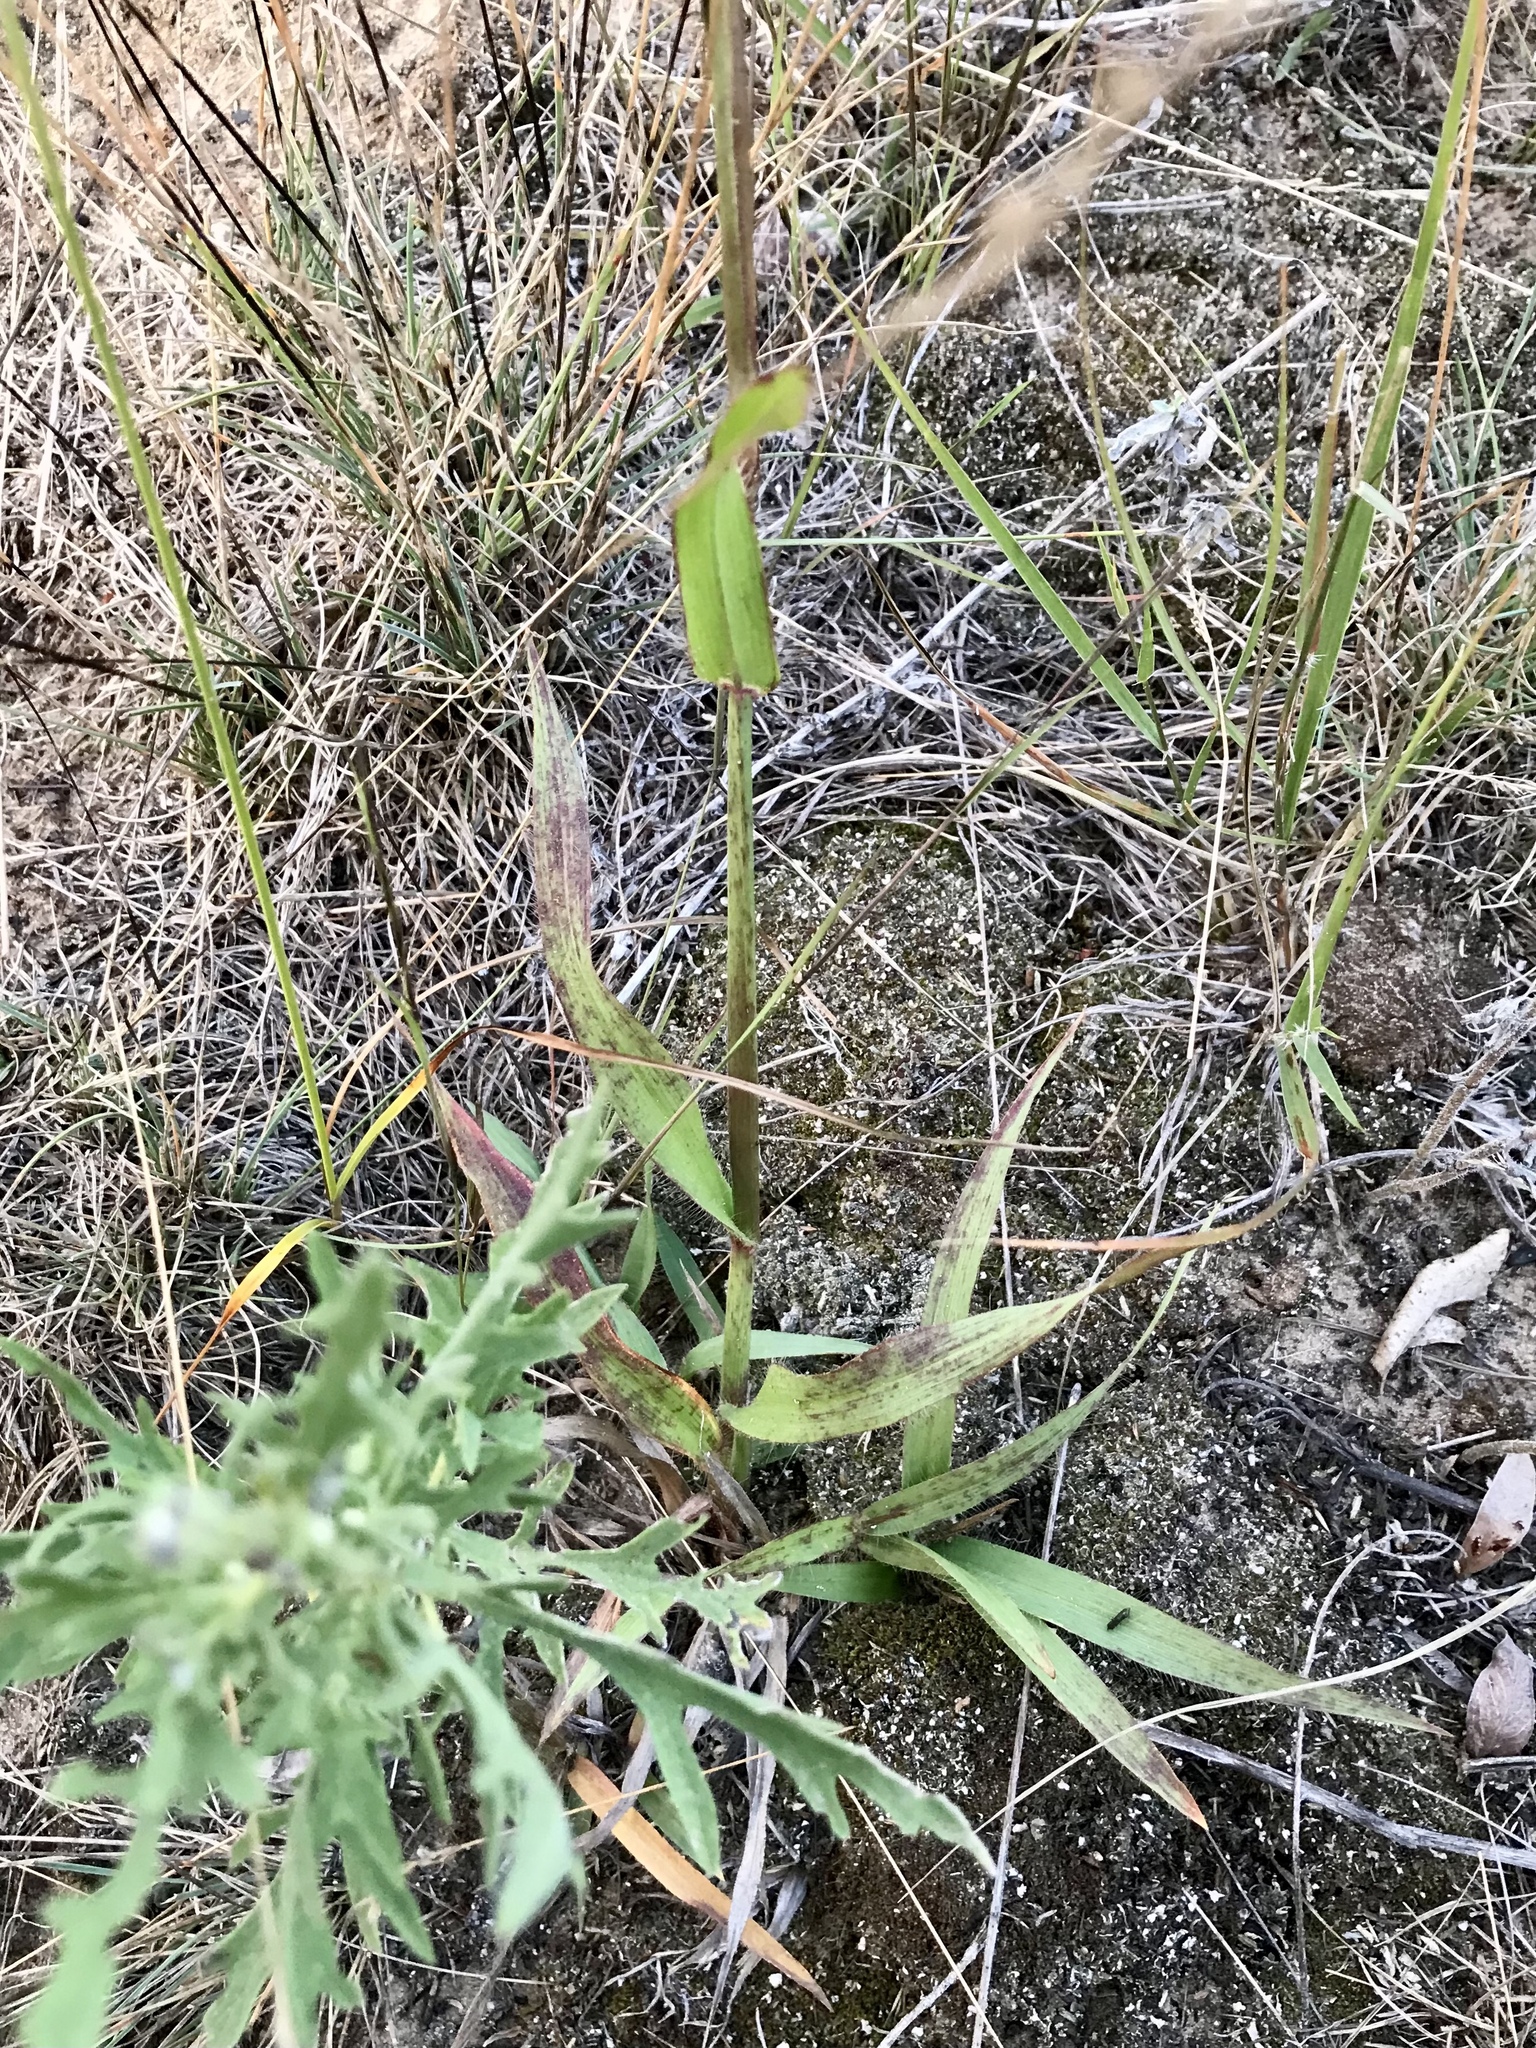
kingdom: Plantae
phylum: Tracheophyta
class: Liliopsida
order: Poales
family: Poaceae
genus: Paspalum
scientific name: Paspalum setaceum
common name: Slender paspalum
